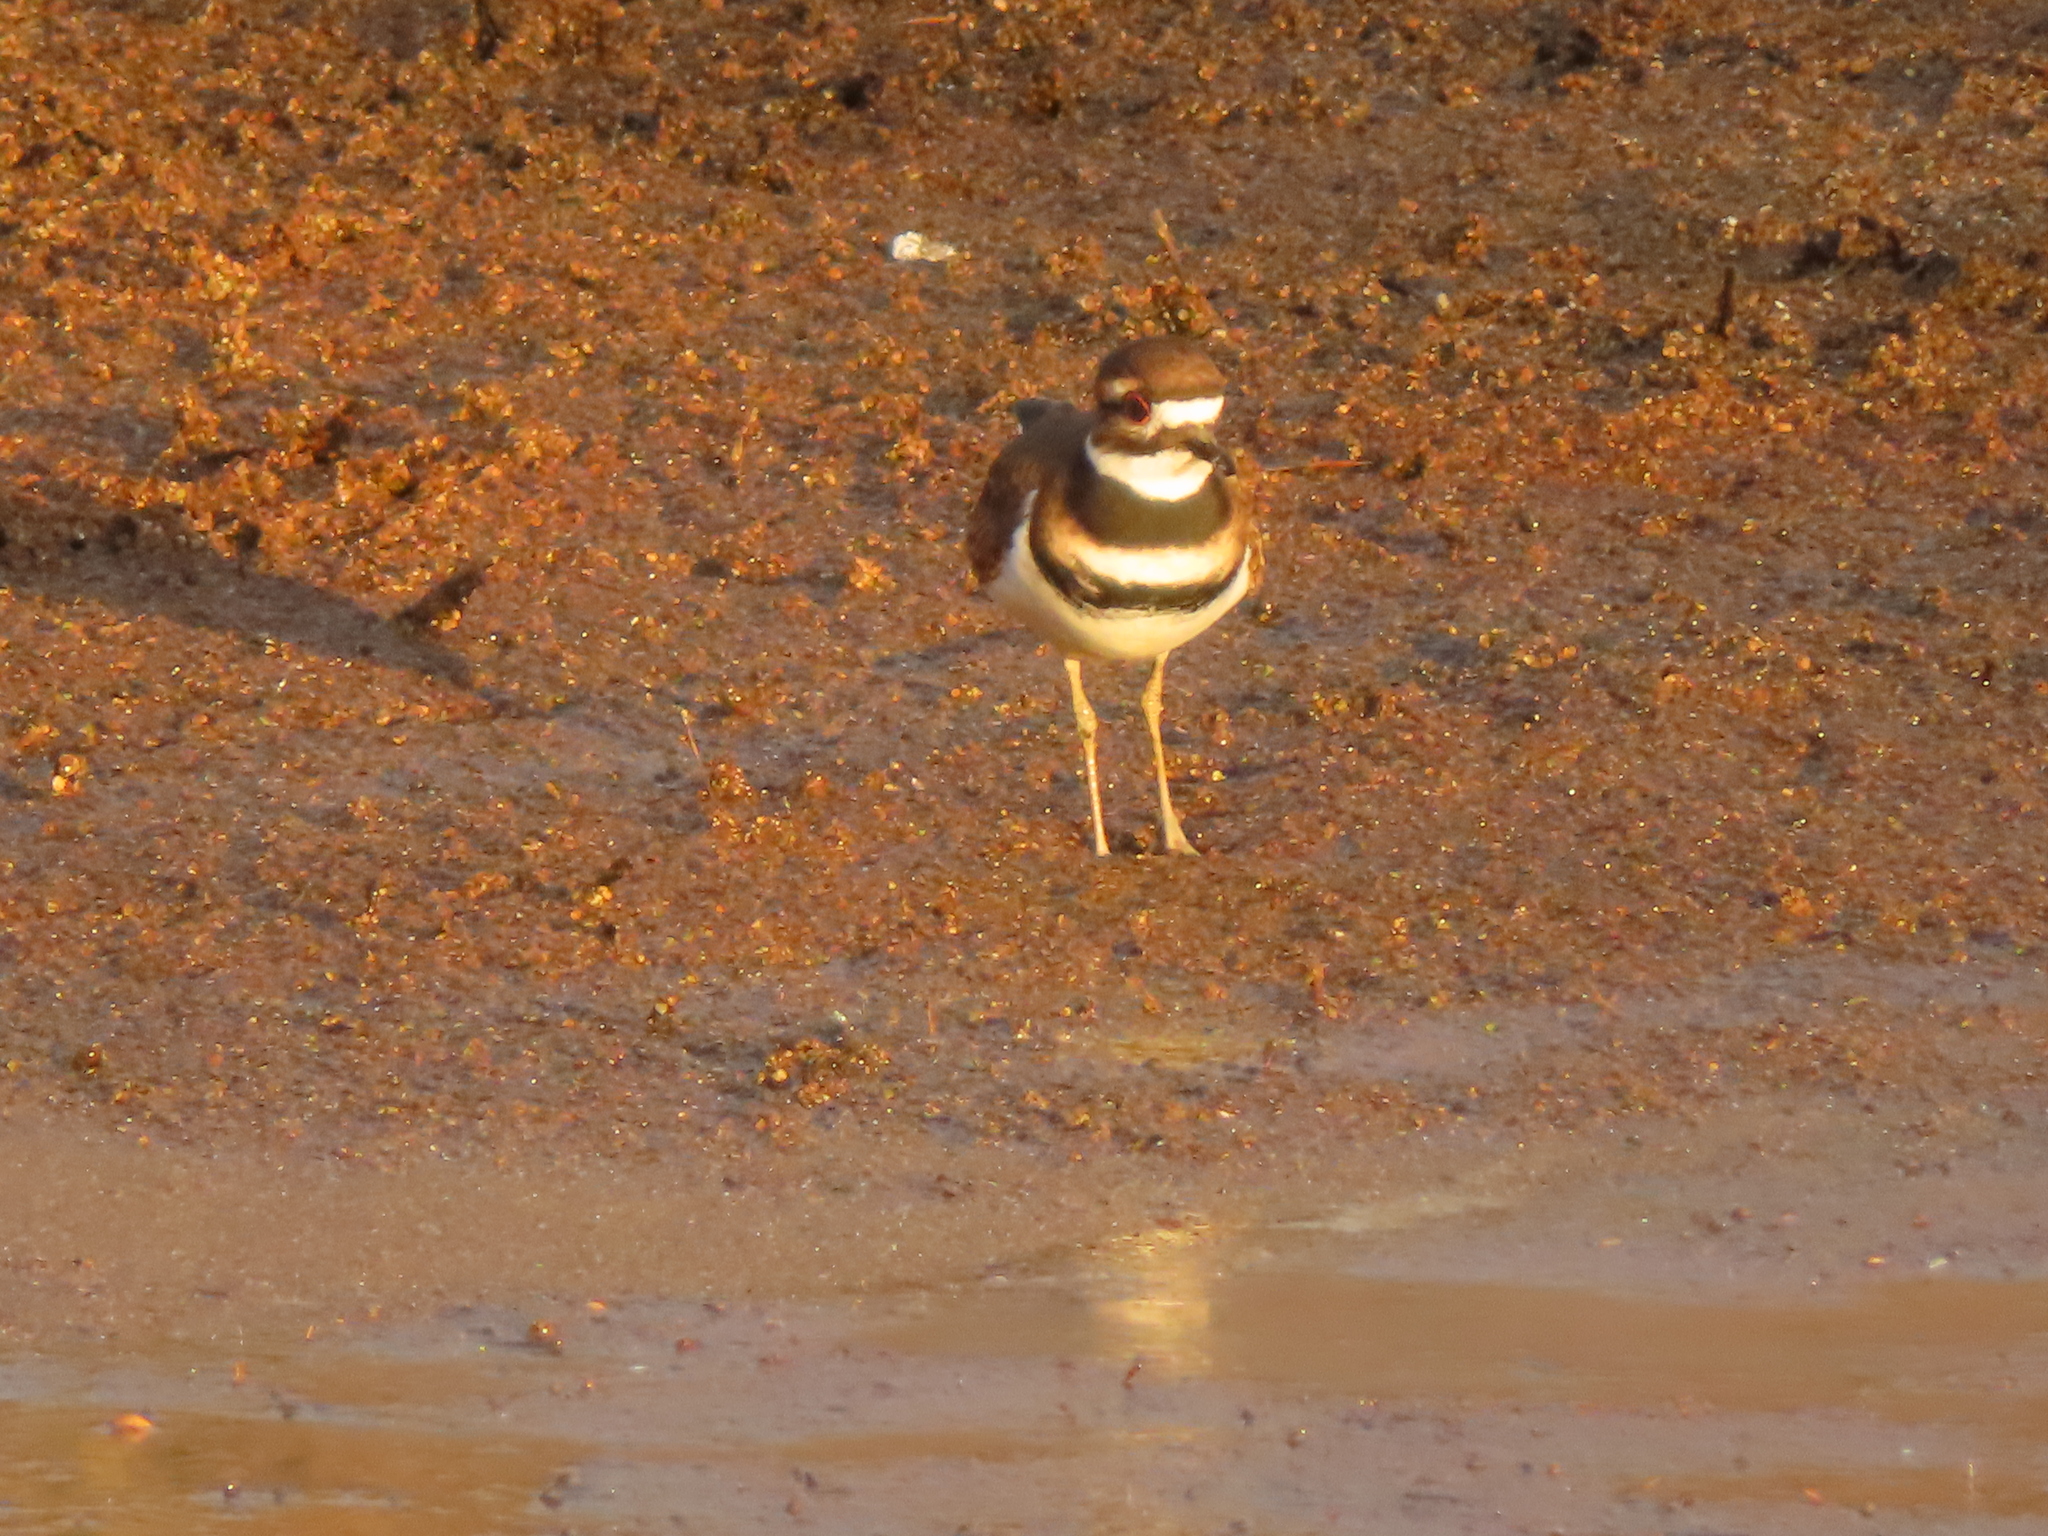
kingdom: Animalia
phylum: Chordata
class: Aves
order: Charadriiformes
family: Charadriidae
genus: Charadrius
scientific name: Charadrius vociferus
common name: Killdeer
